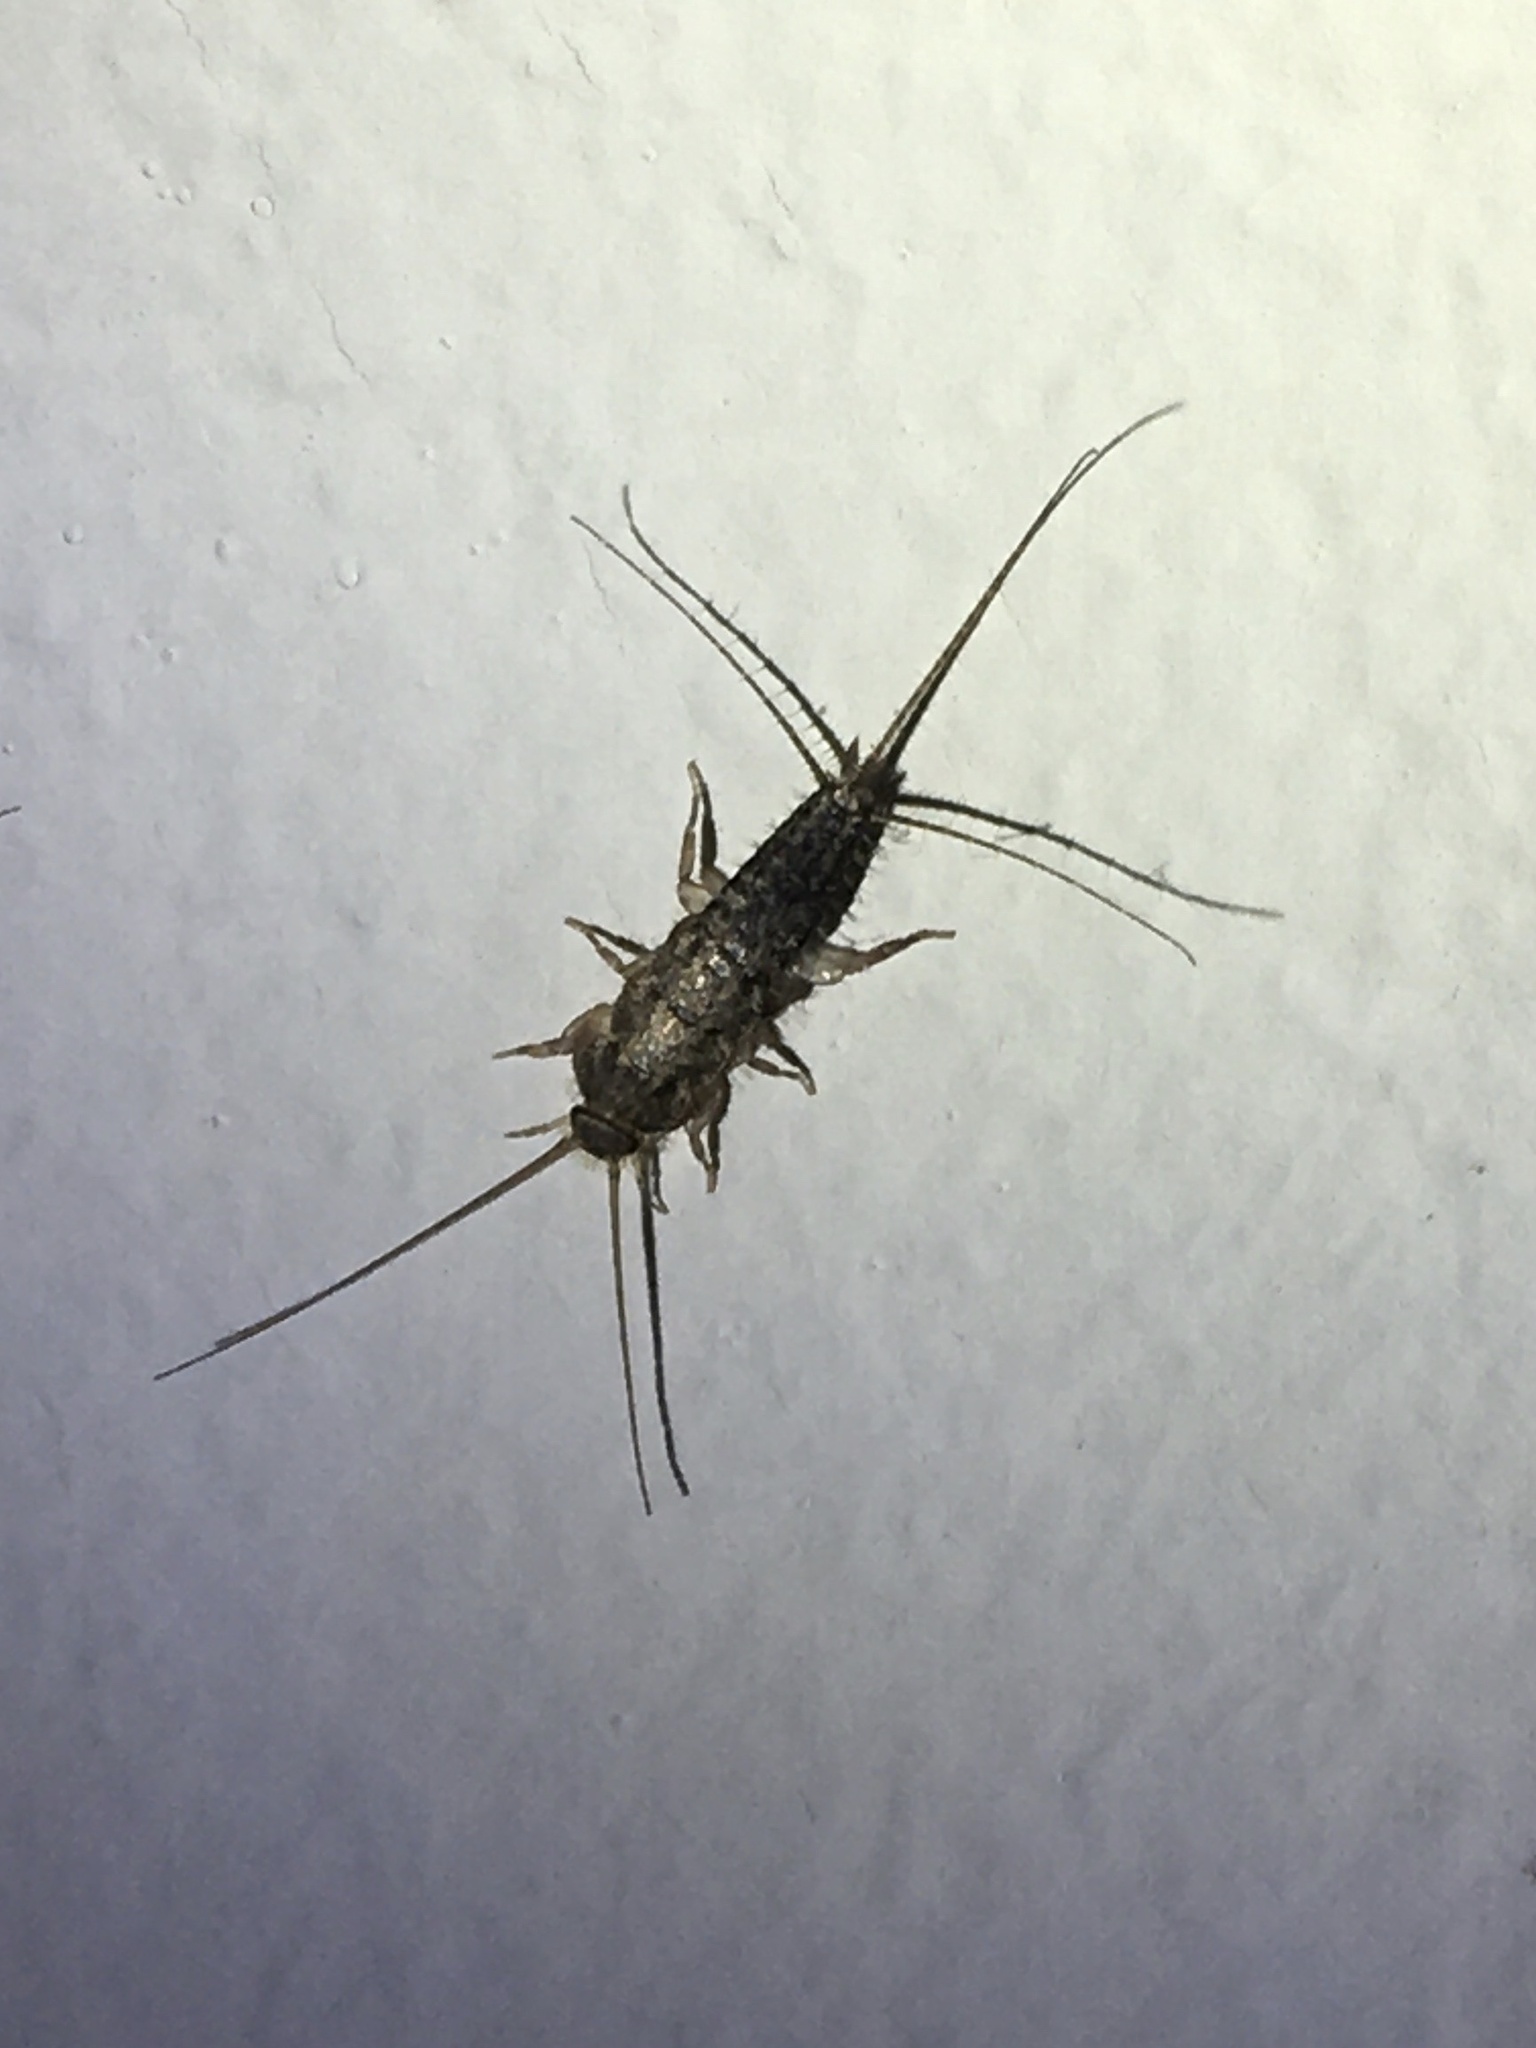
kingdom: Animalia
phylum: Arthropoda
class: Insecta
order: Zygentoma
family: Lepismatidae
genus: Ctenolepisma
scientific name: Ctenolepisma lineata
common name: Four-lined silverfish
